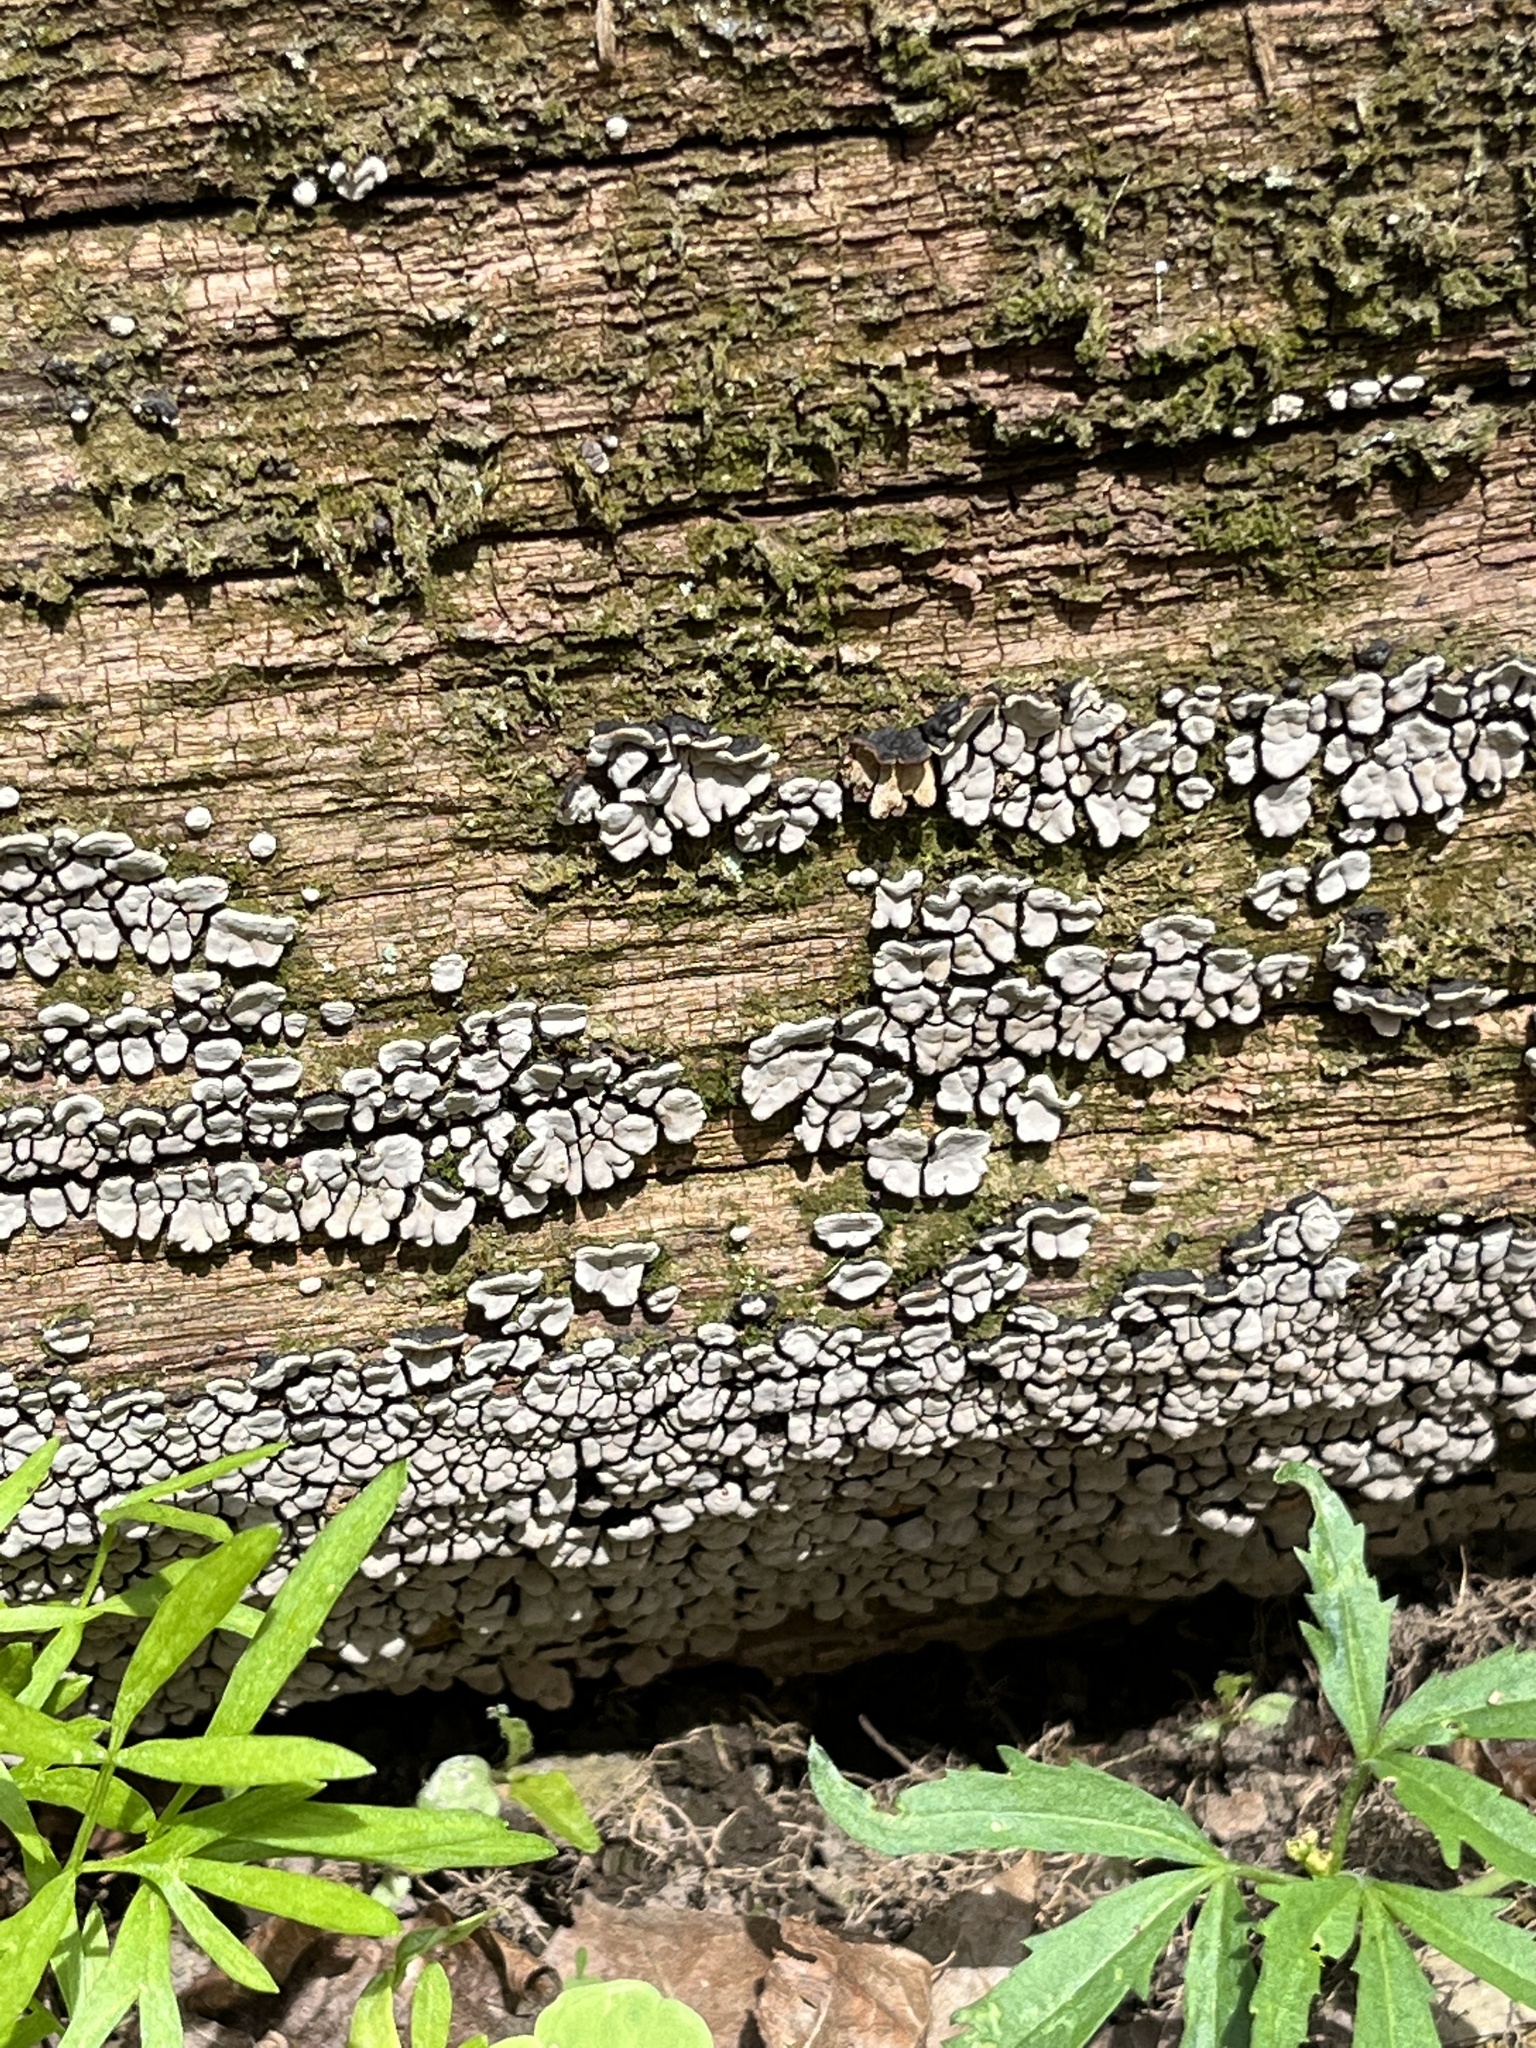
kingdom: Fungi
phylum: Basidiomycota
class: Agaricomycetes
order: Russulales
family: Stereaceae
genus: Xylobolus
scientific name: Xylobolus frustulatus
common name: Ceramic parchment
